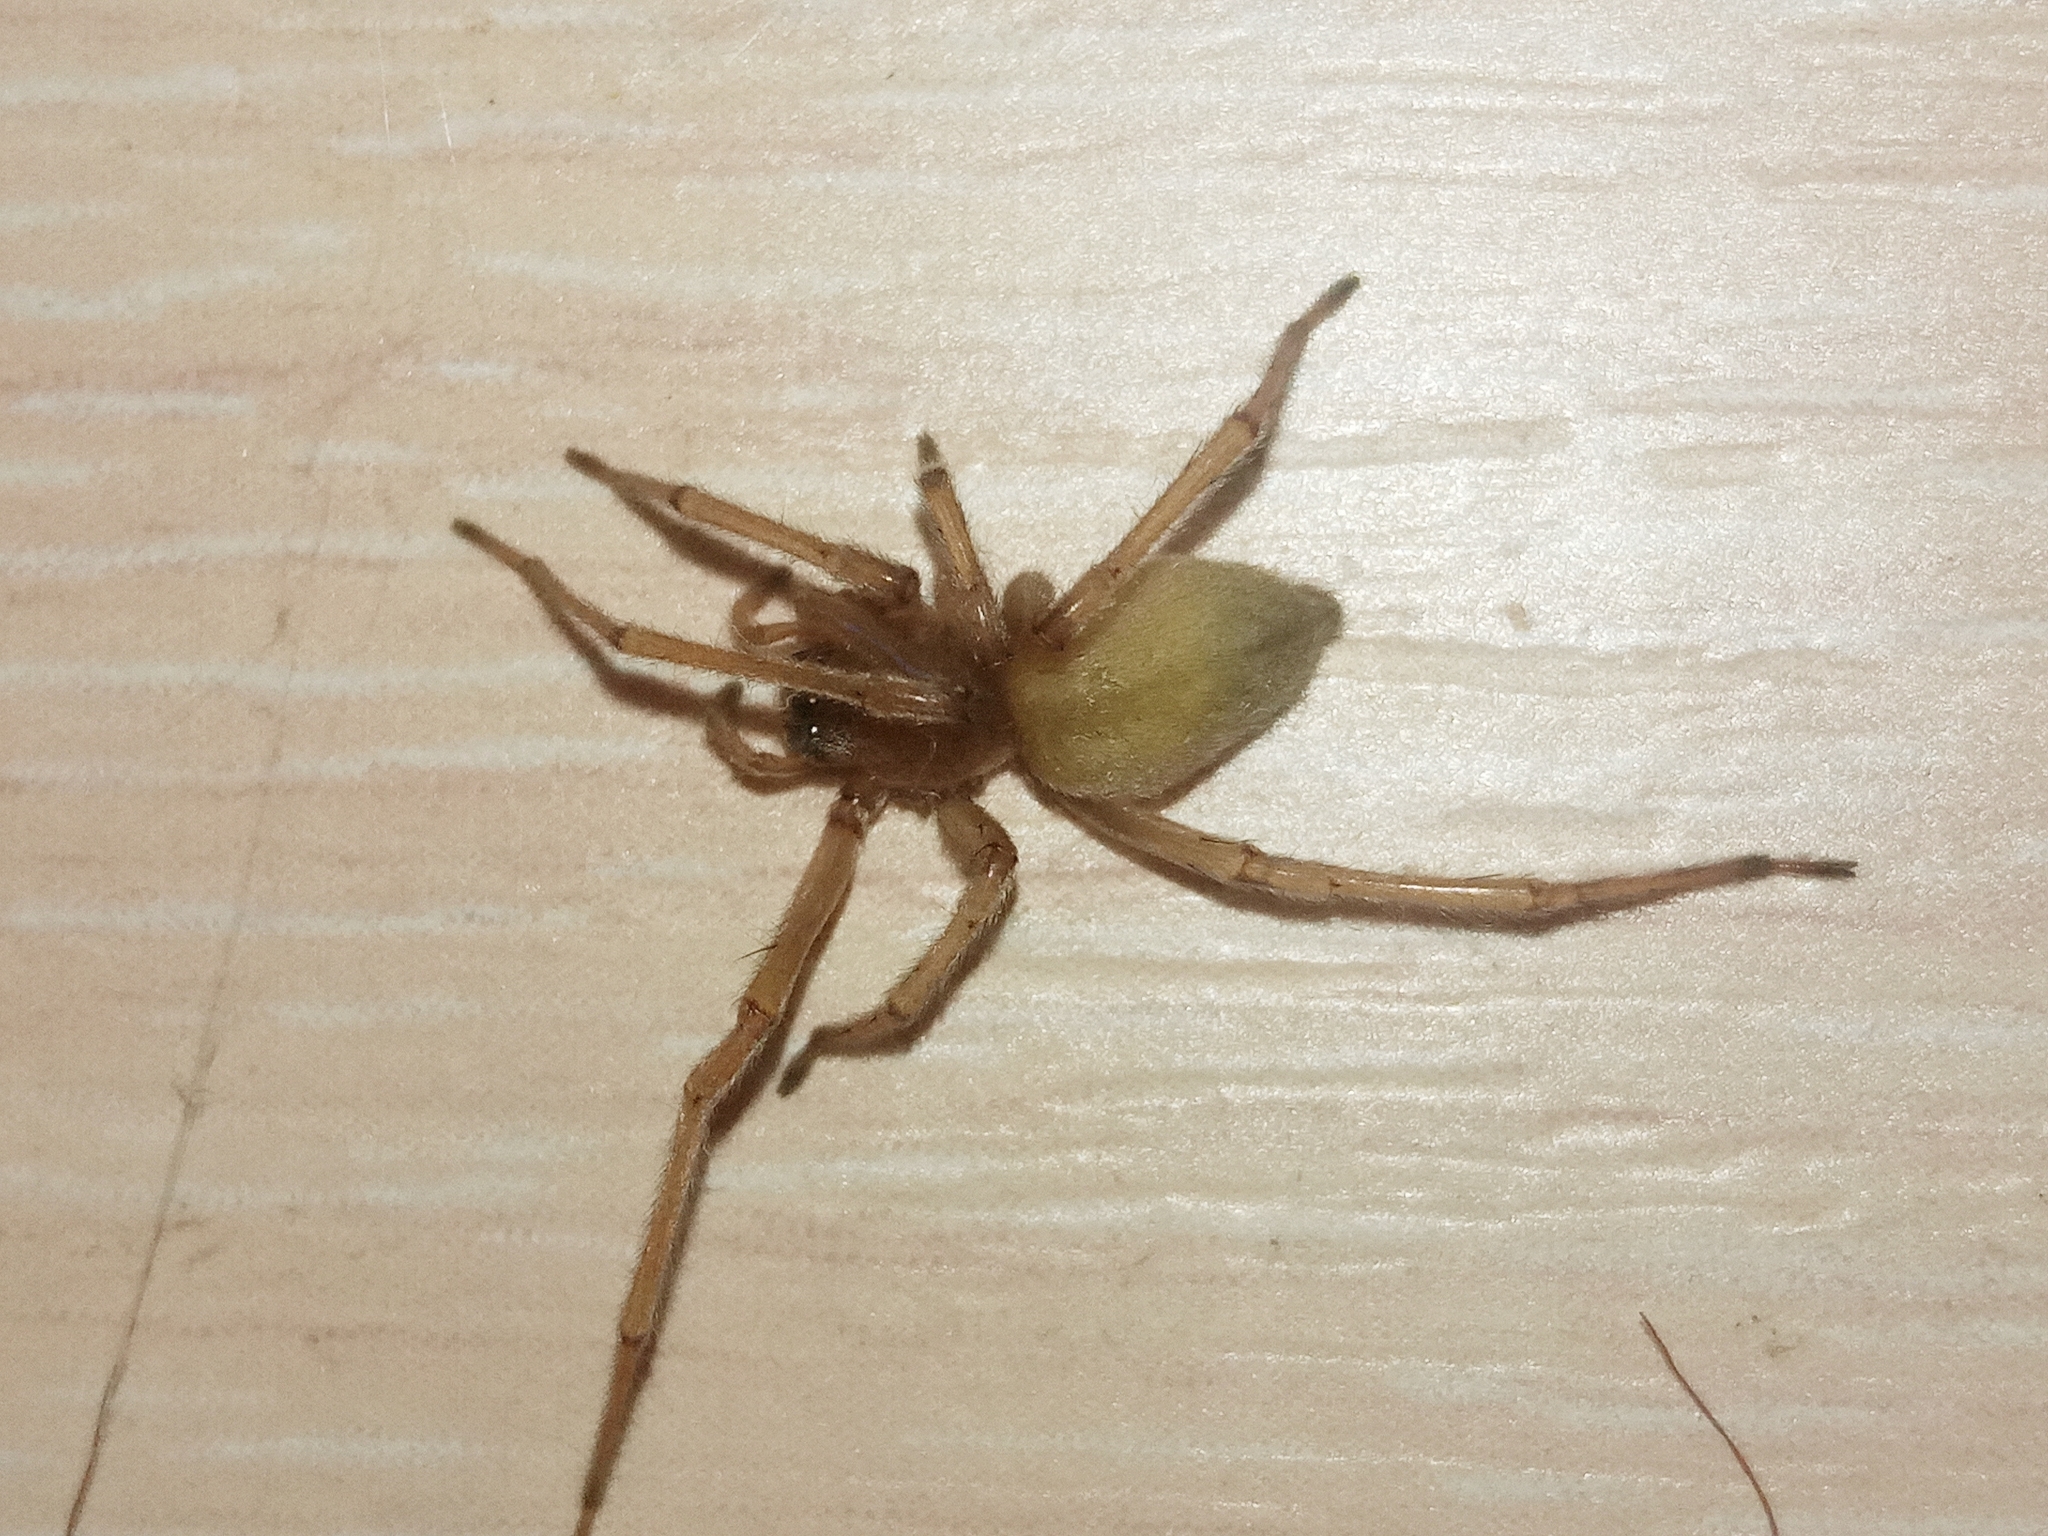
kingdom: Animalia
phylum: Arthropoda
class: Arachnida
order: Araneae
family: Cheiracanthiidae
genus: Cheiracanthium
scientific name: Cheiracanthium
